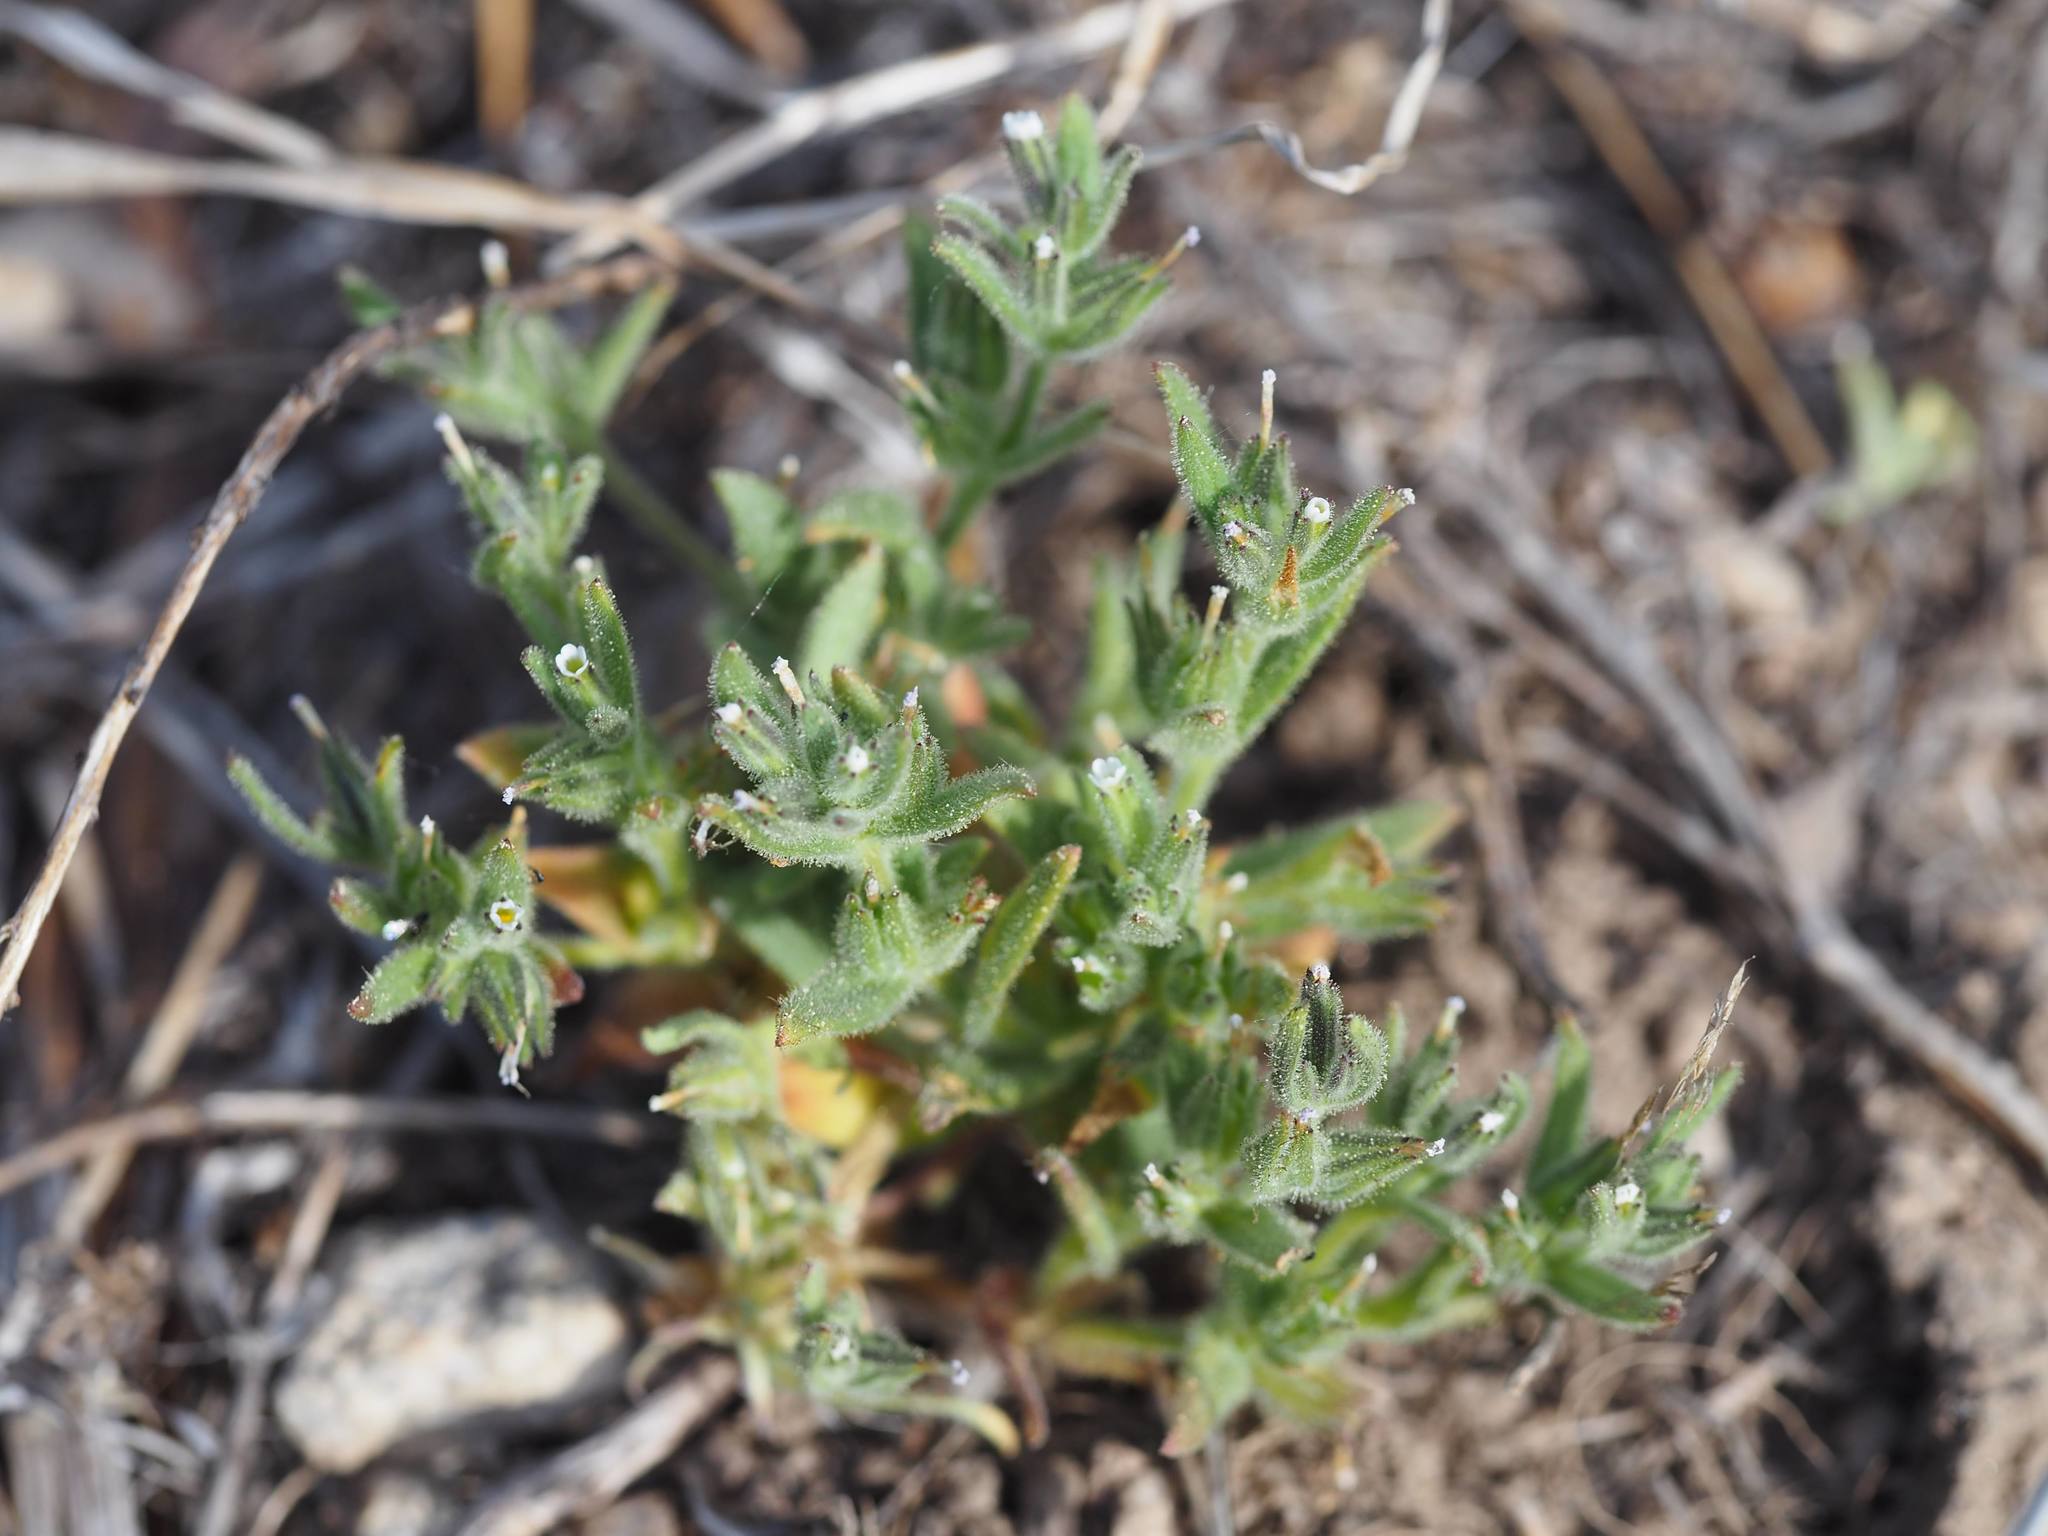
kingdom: Plantae
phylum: Tracheophyta
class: Magnoliopsida
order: Ericales
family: Polemoniaceae
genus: Phlox
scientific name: Phlox gracilis
